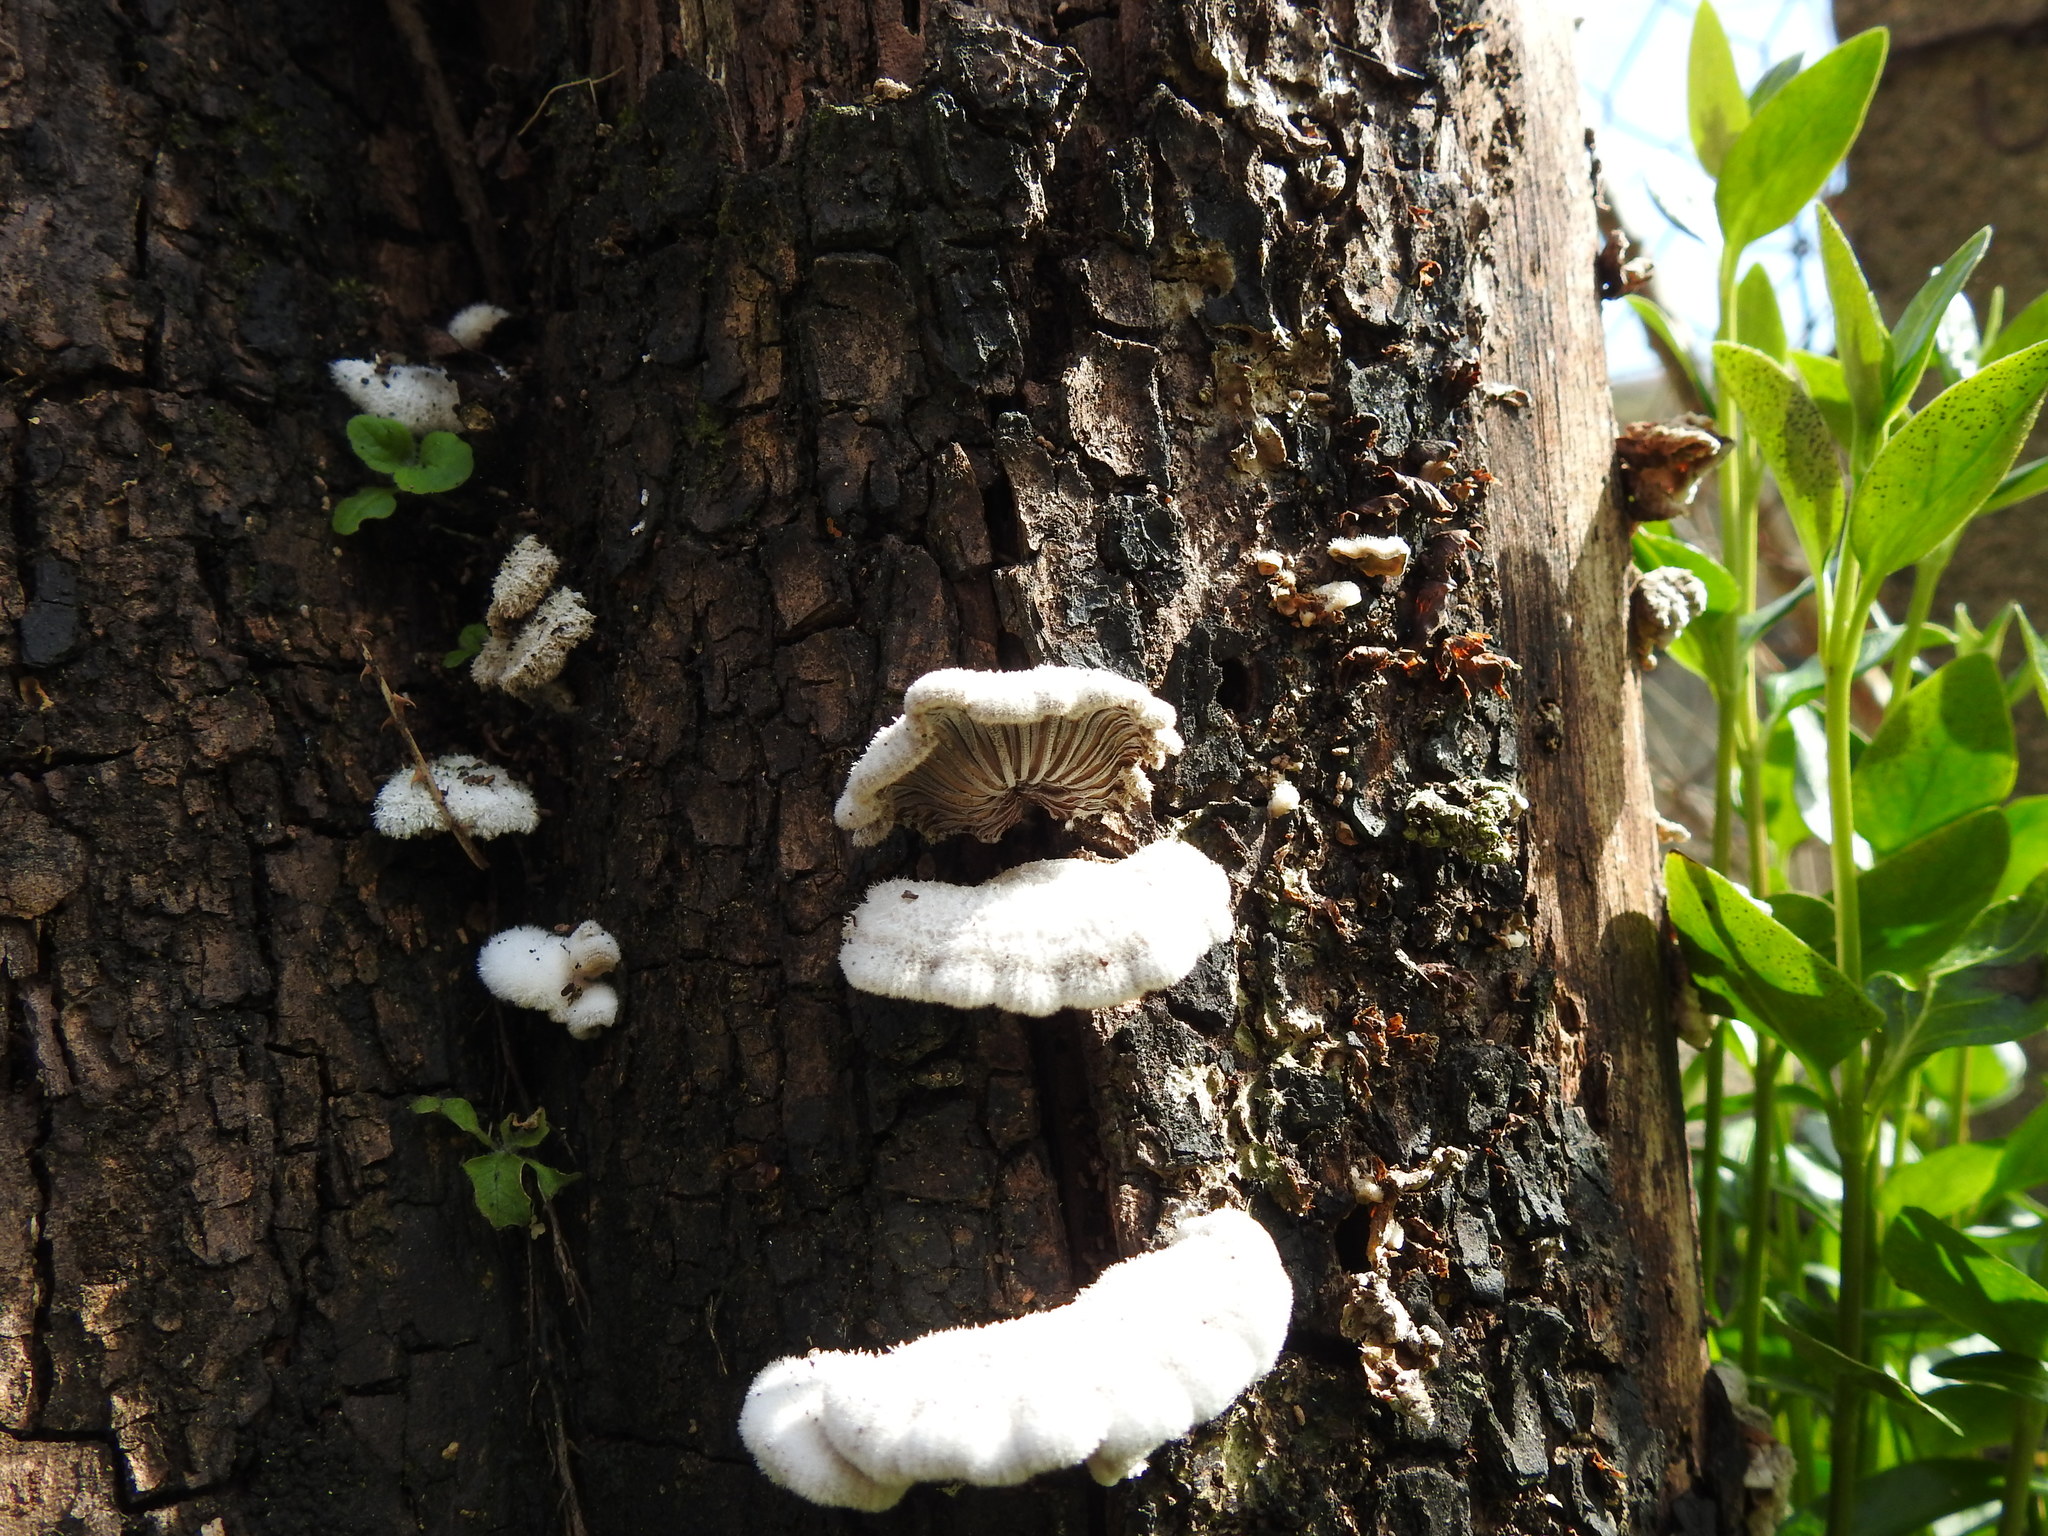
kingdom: Fungi
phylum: Basidiomycota
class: Agaricomycetes
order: Agaricales
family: Schizophyllaceae
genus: Schizophyllum
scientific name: Schizophyllum commune
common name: Common porecrust
